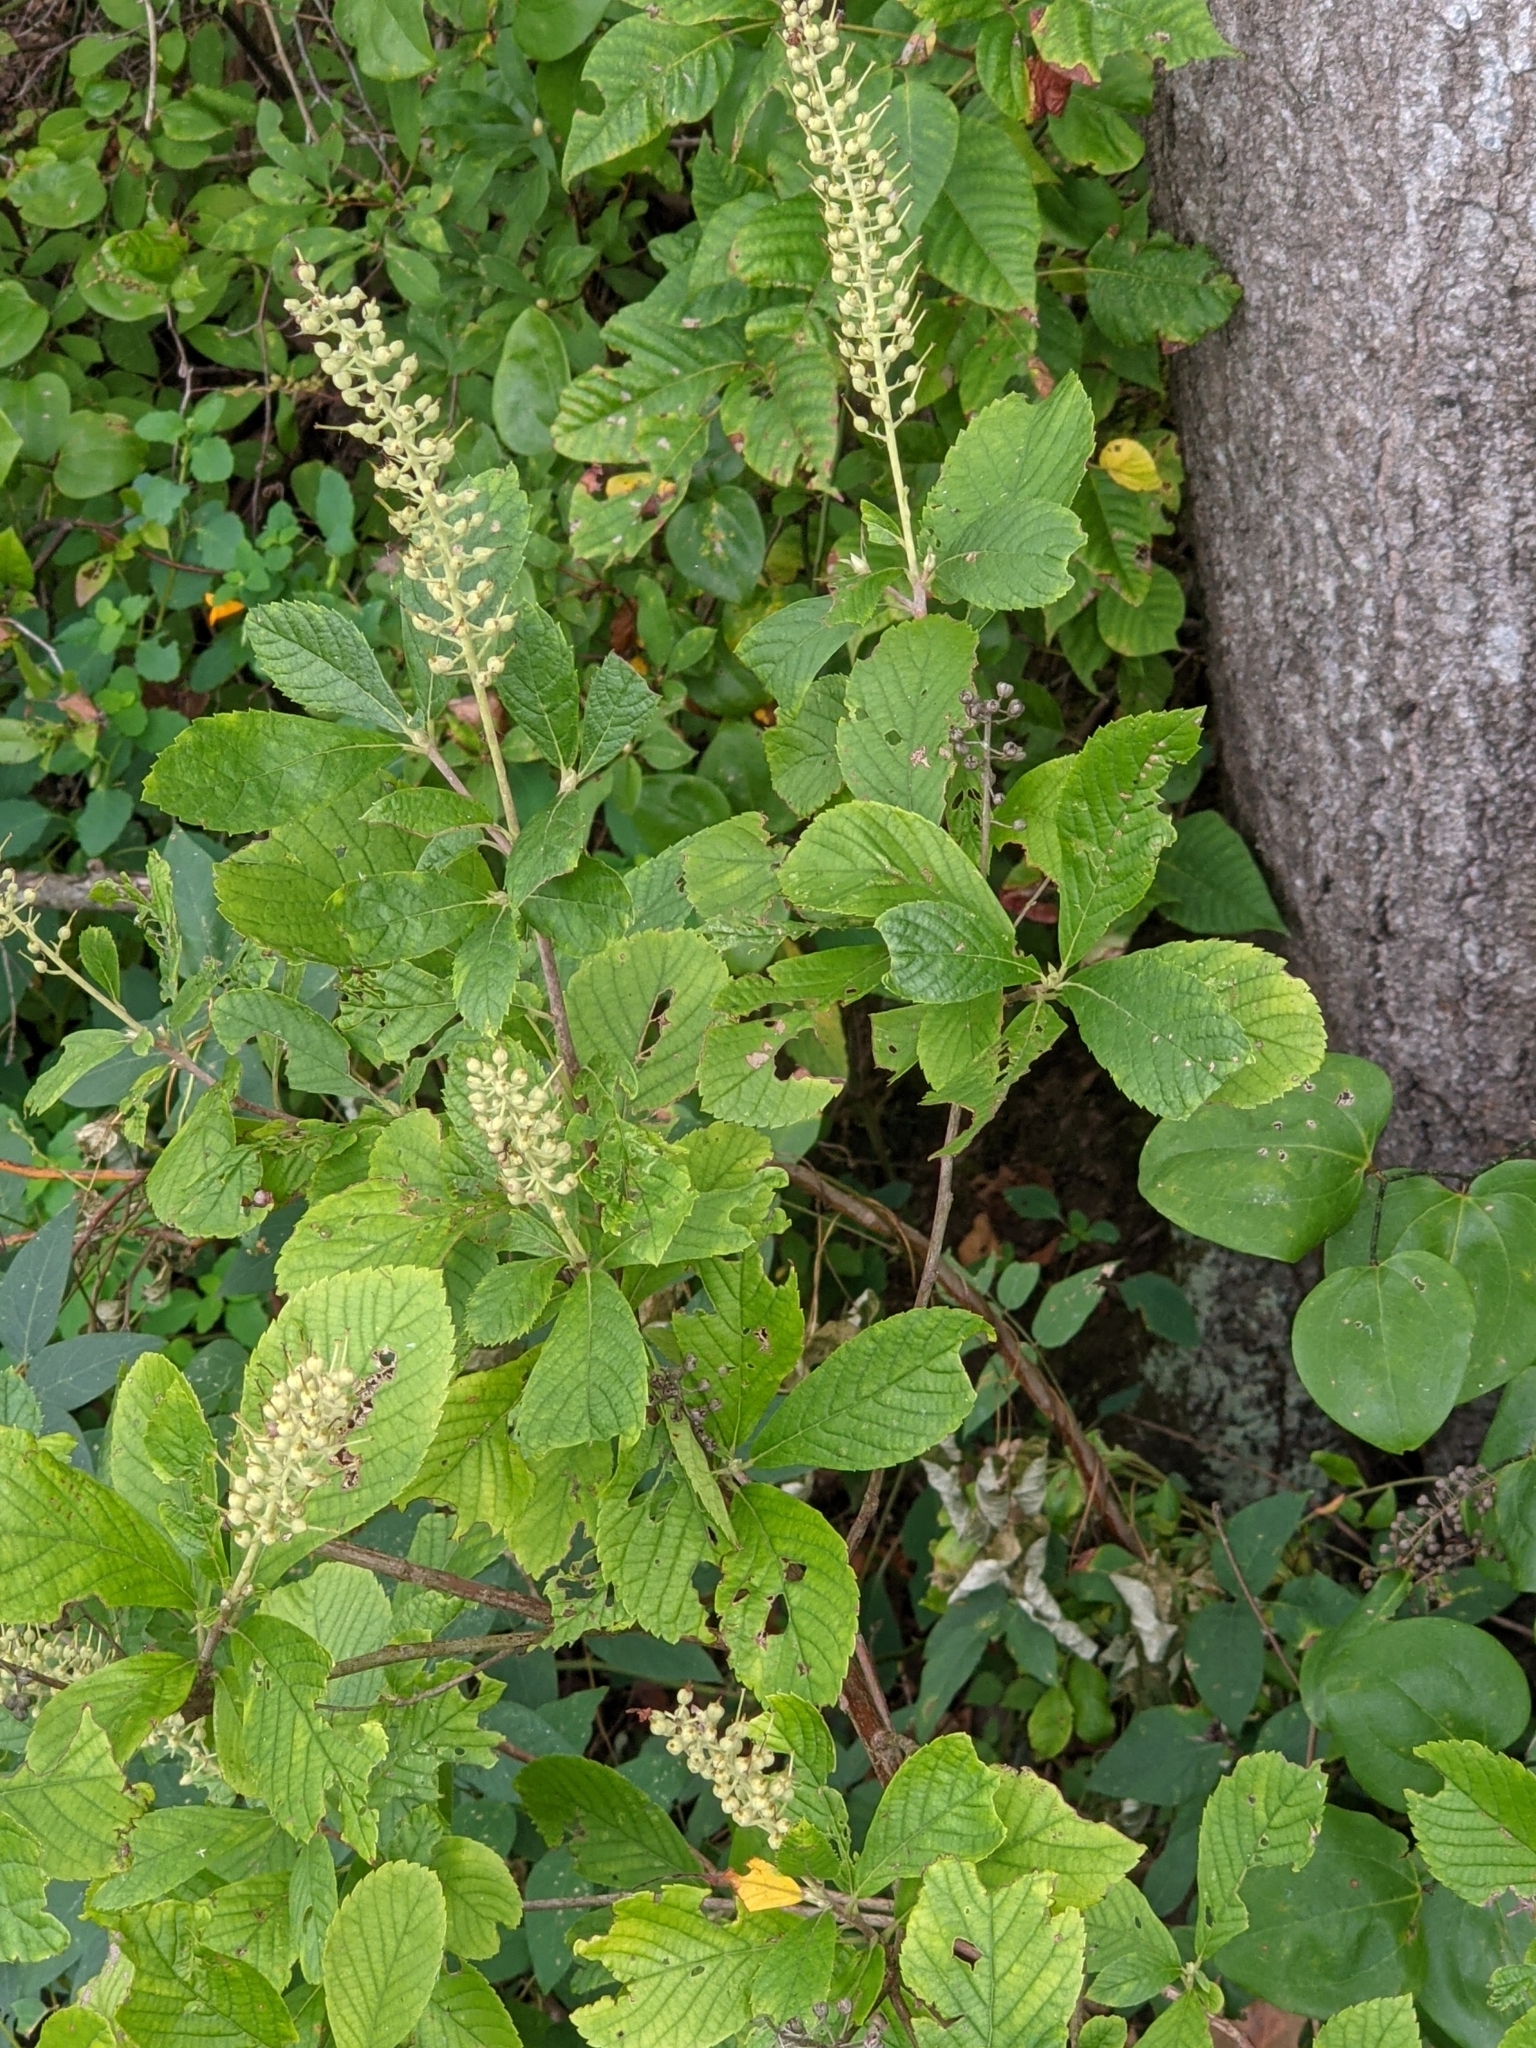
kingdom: Plantae
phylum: Tracheophyta
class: Magnoliopsida
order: Ericales
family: Clethraceae
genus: Clethra
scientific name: Clethra alnifolia
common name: Sweet pepperbush
